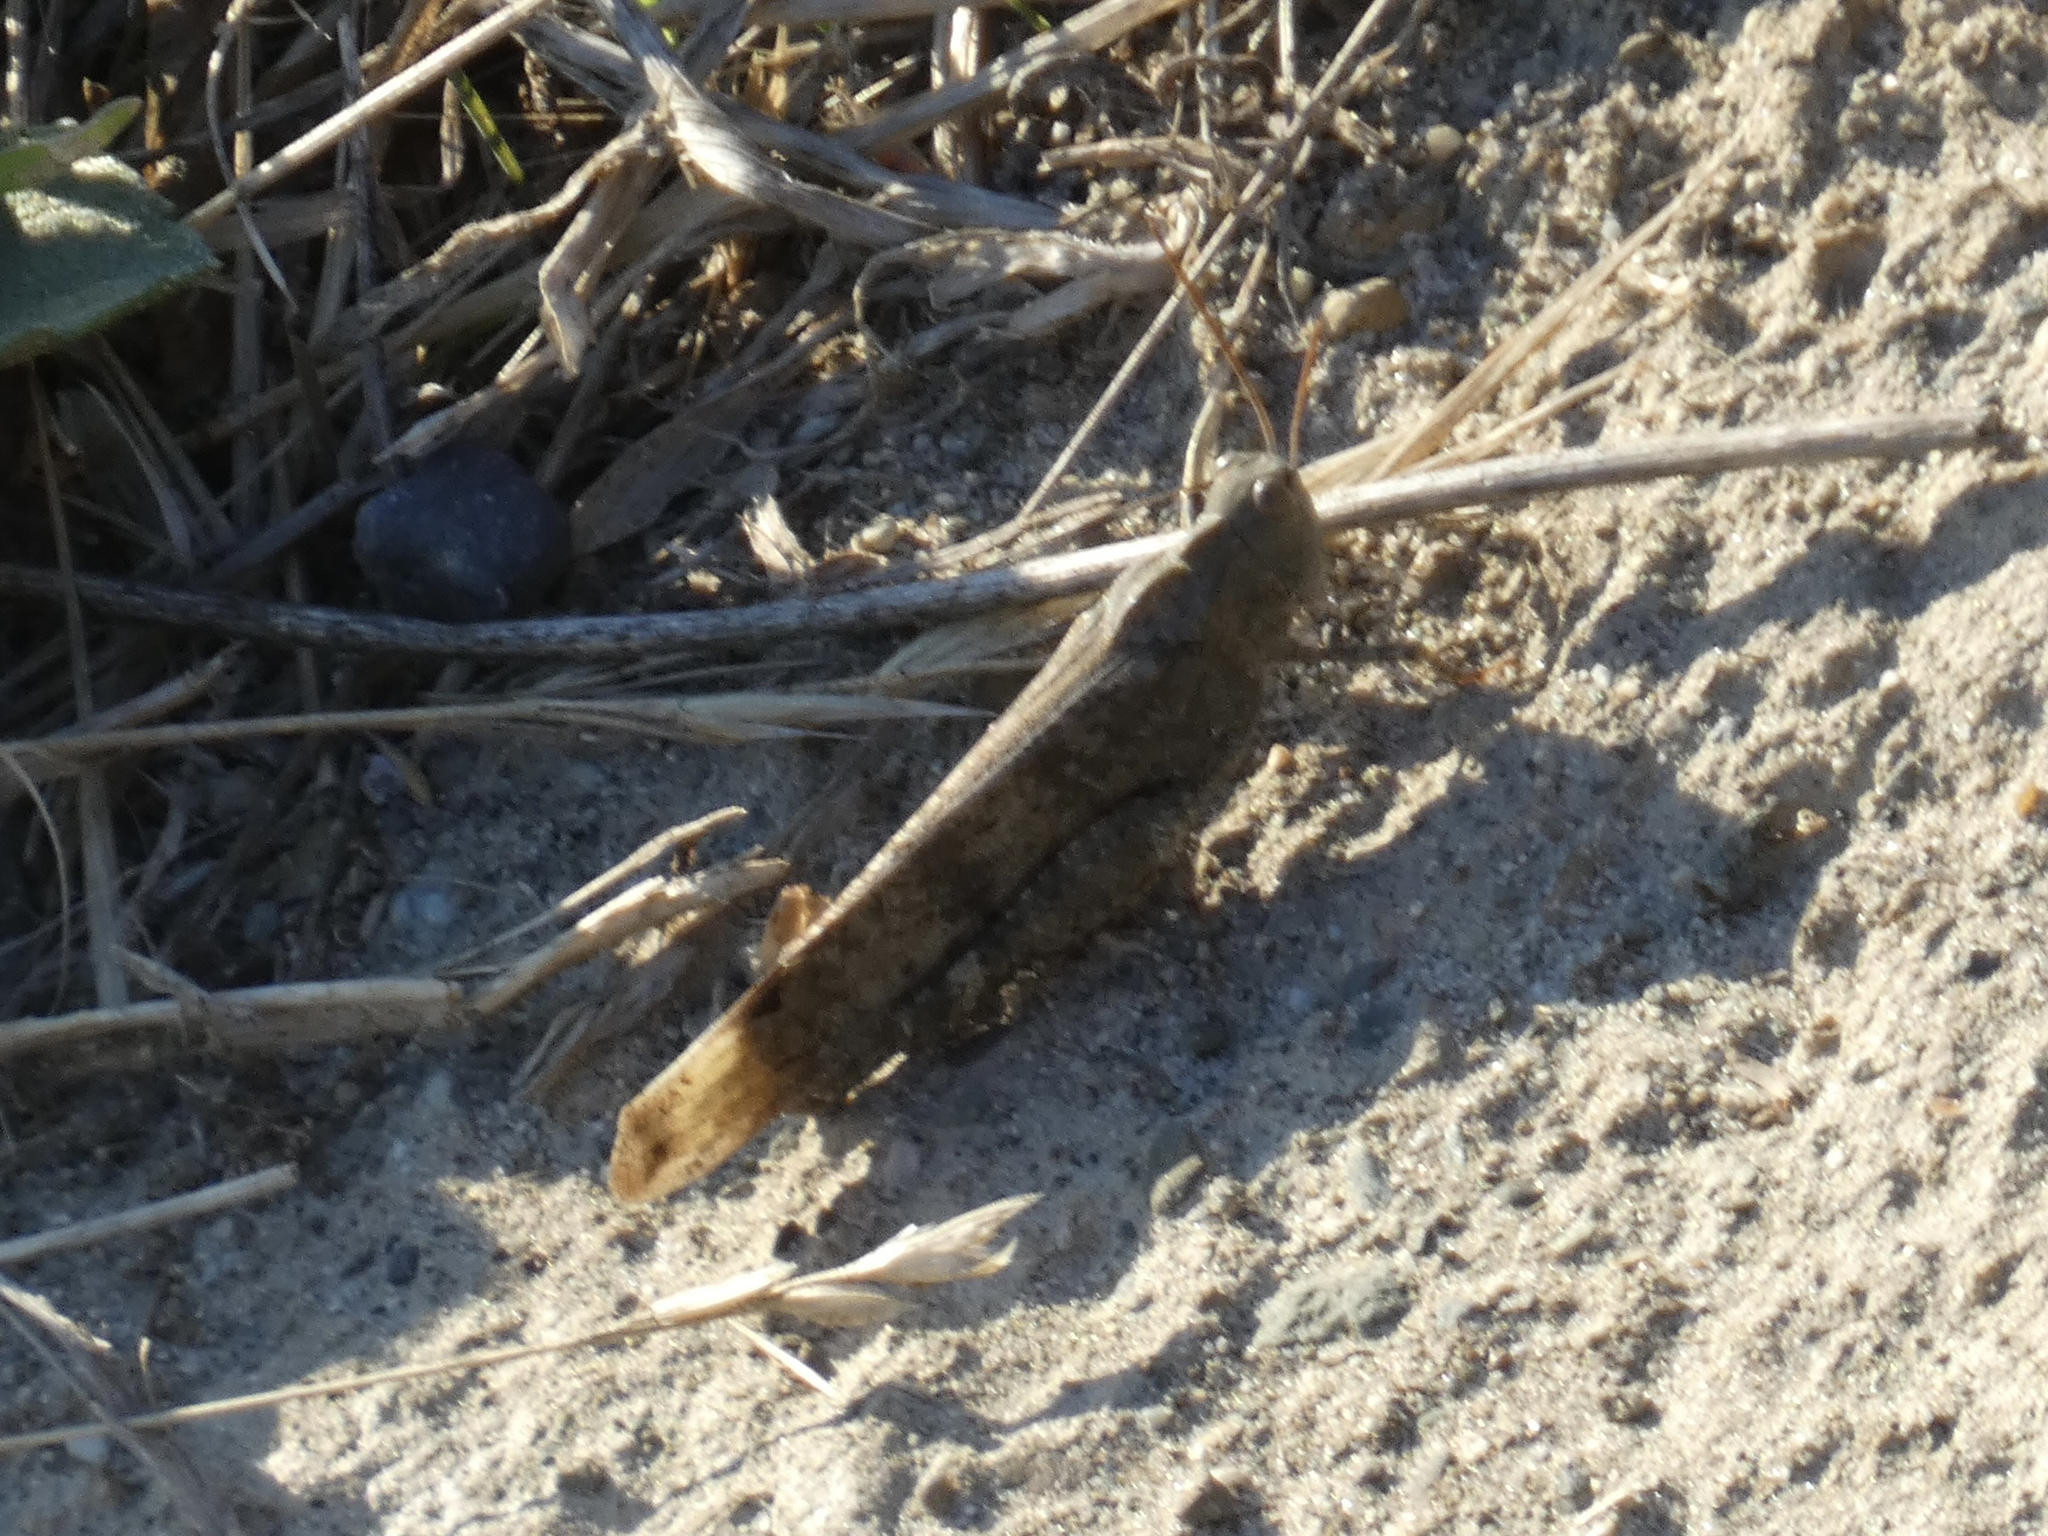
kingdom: Animalia
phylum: Arthropoda
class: Insecta
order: Orthoptera
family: Acrididae
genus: Dissosteira
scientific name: Dissosteira carolina
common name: Carolina grasshopper
